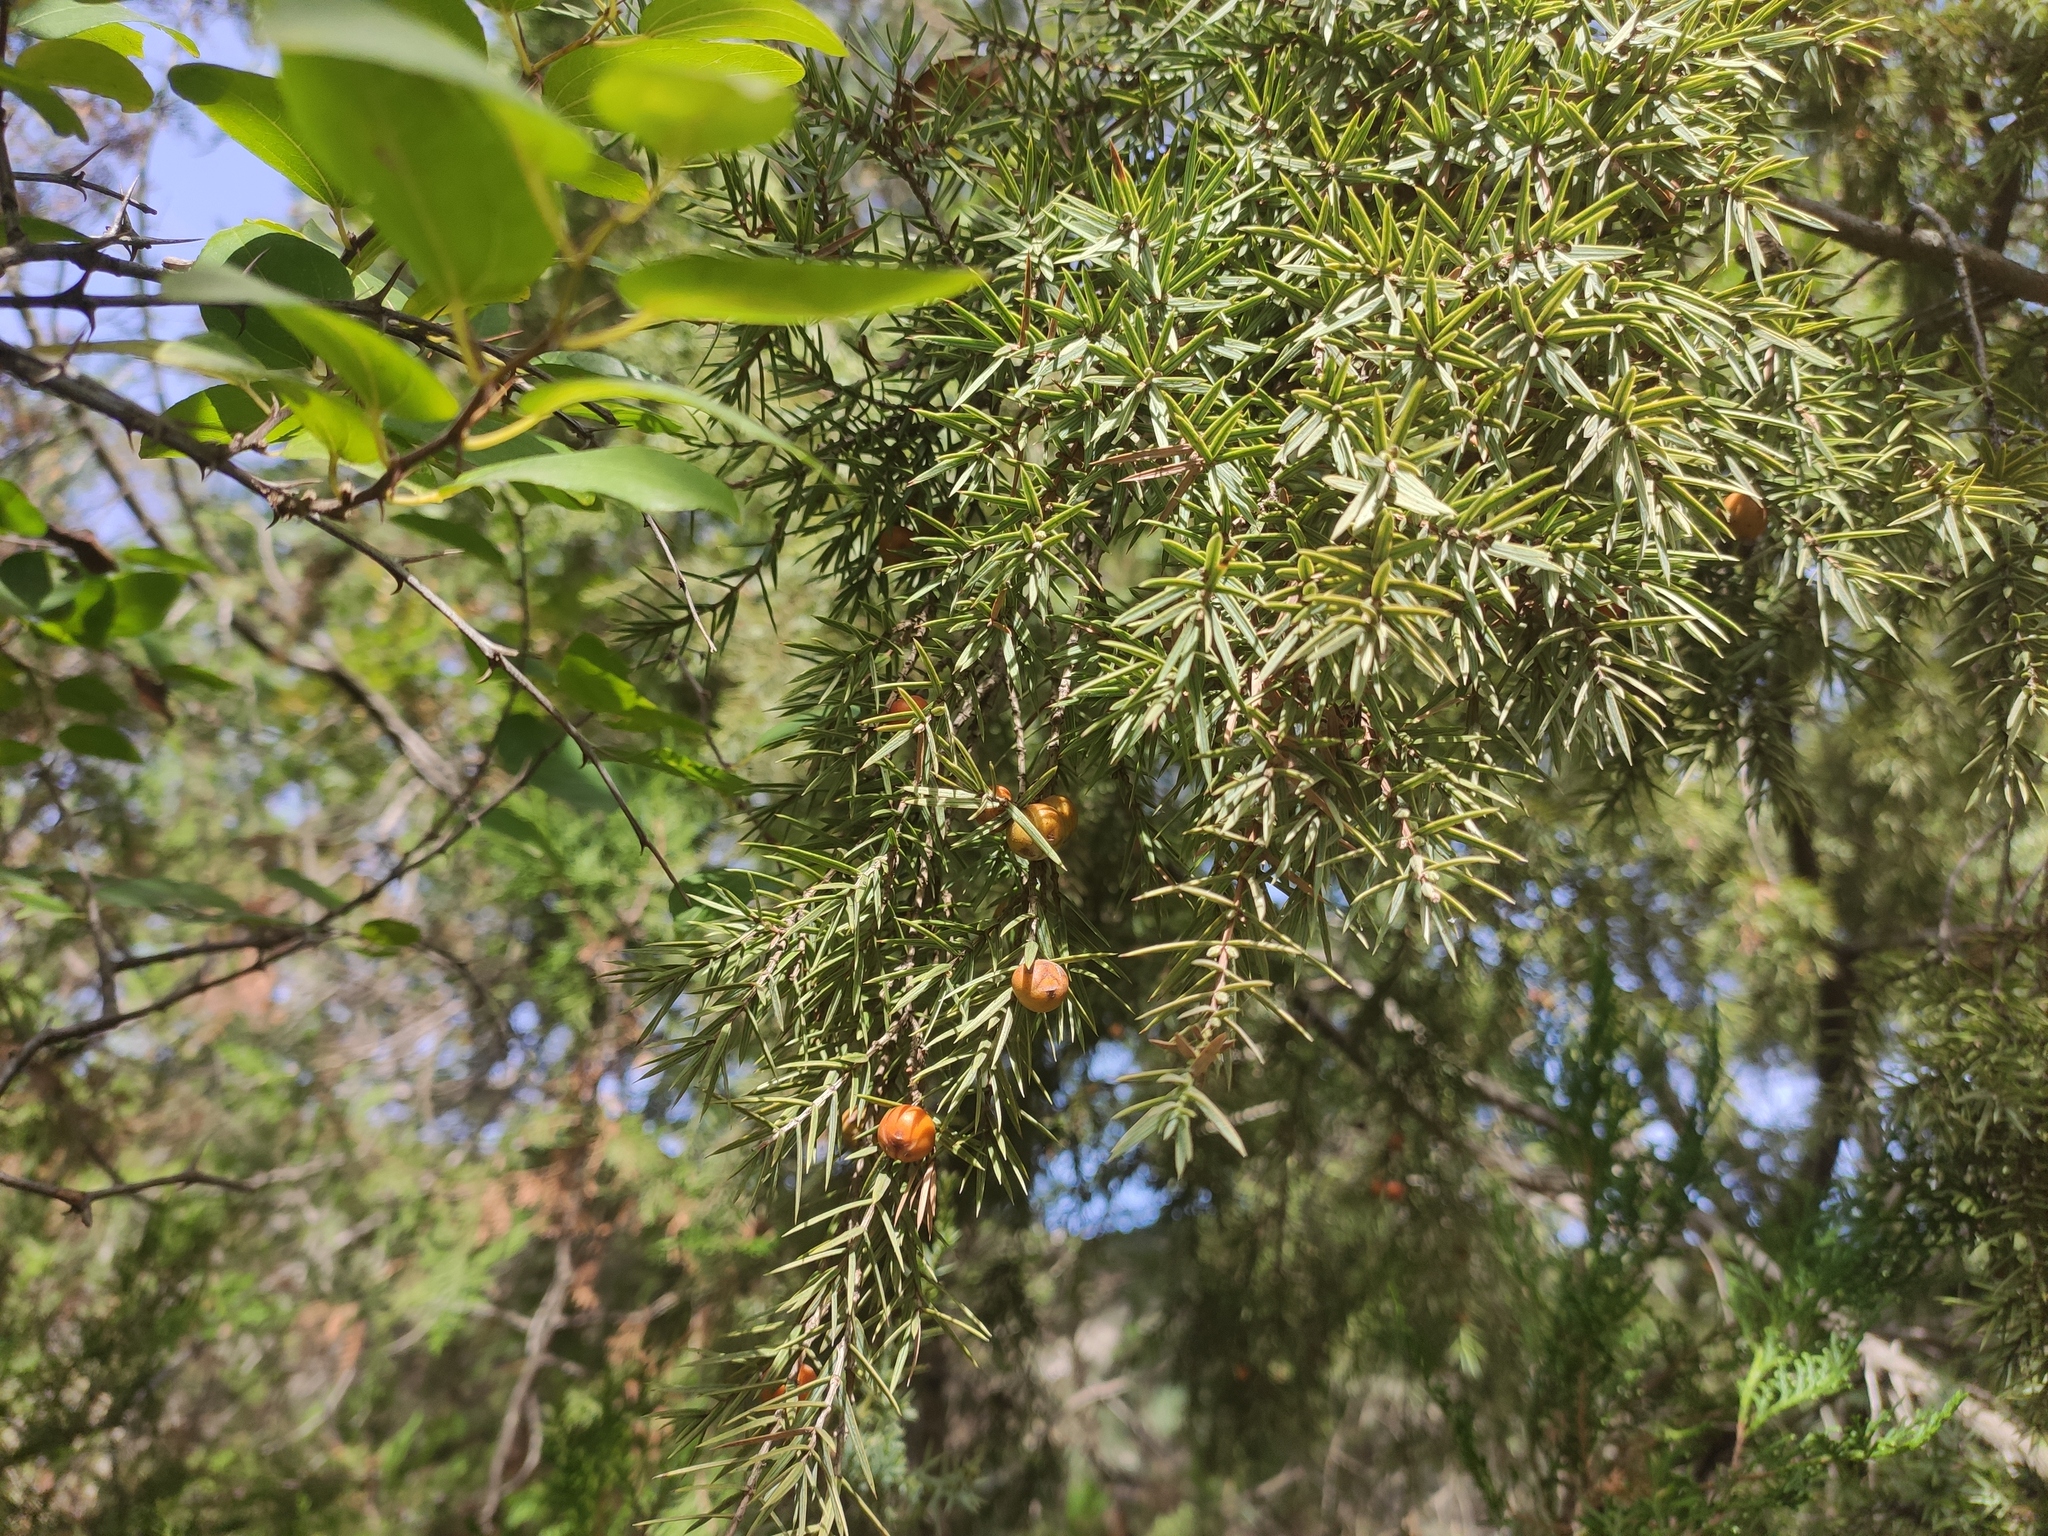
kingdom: Plantae
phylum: Tracheophyta
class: Pinopsida
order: Pinales
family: Cupressaceae
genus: Juniperus
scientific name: Juniperus oxycedrus
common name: Prickly juniper
